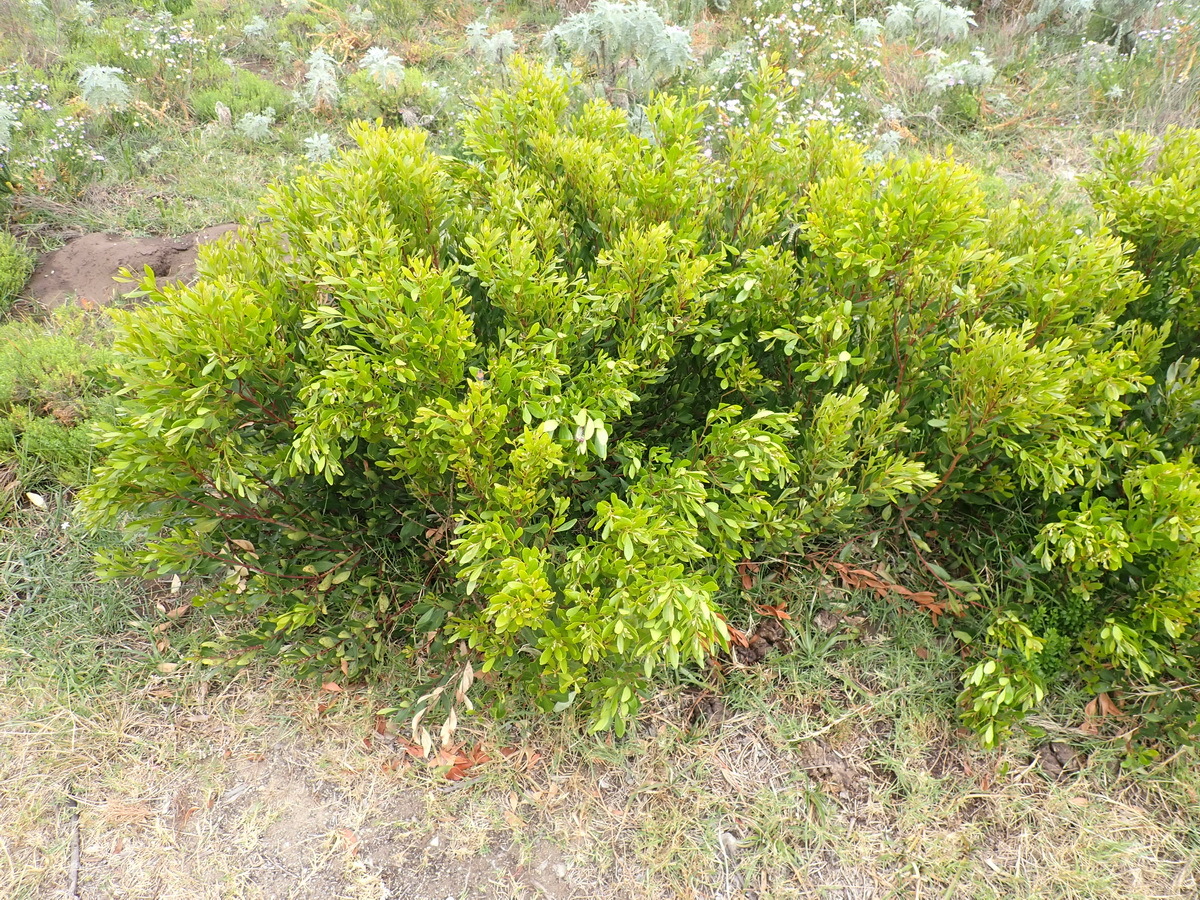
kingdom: Plantae
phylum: Tracheophyta
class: Magnoliopsida
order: Ericales
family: Ebenaceae
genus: Euclea
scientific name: Euclea racemosa
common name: Dune guarri
